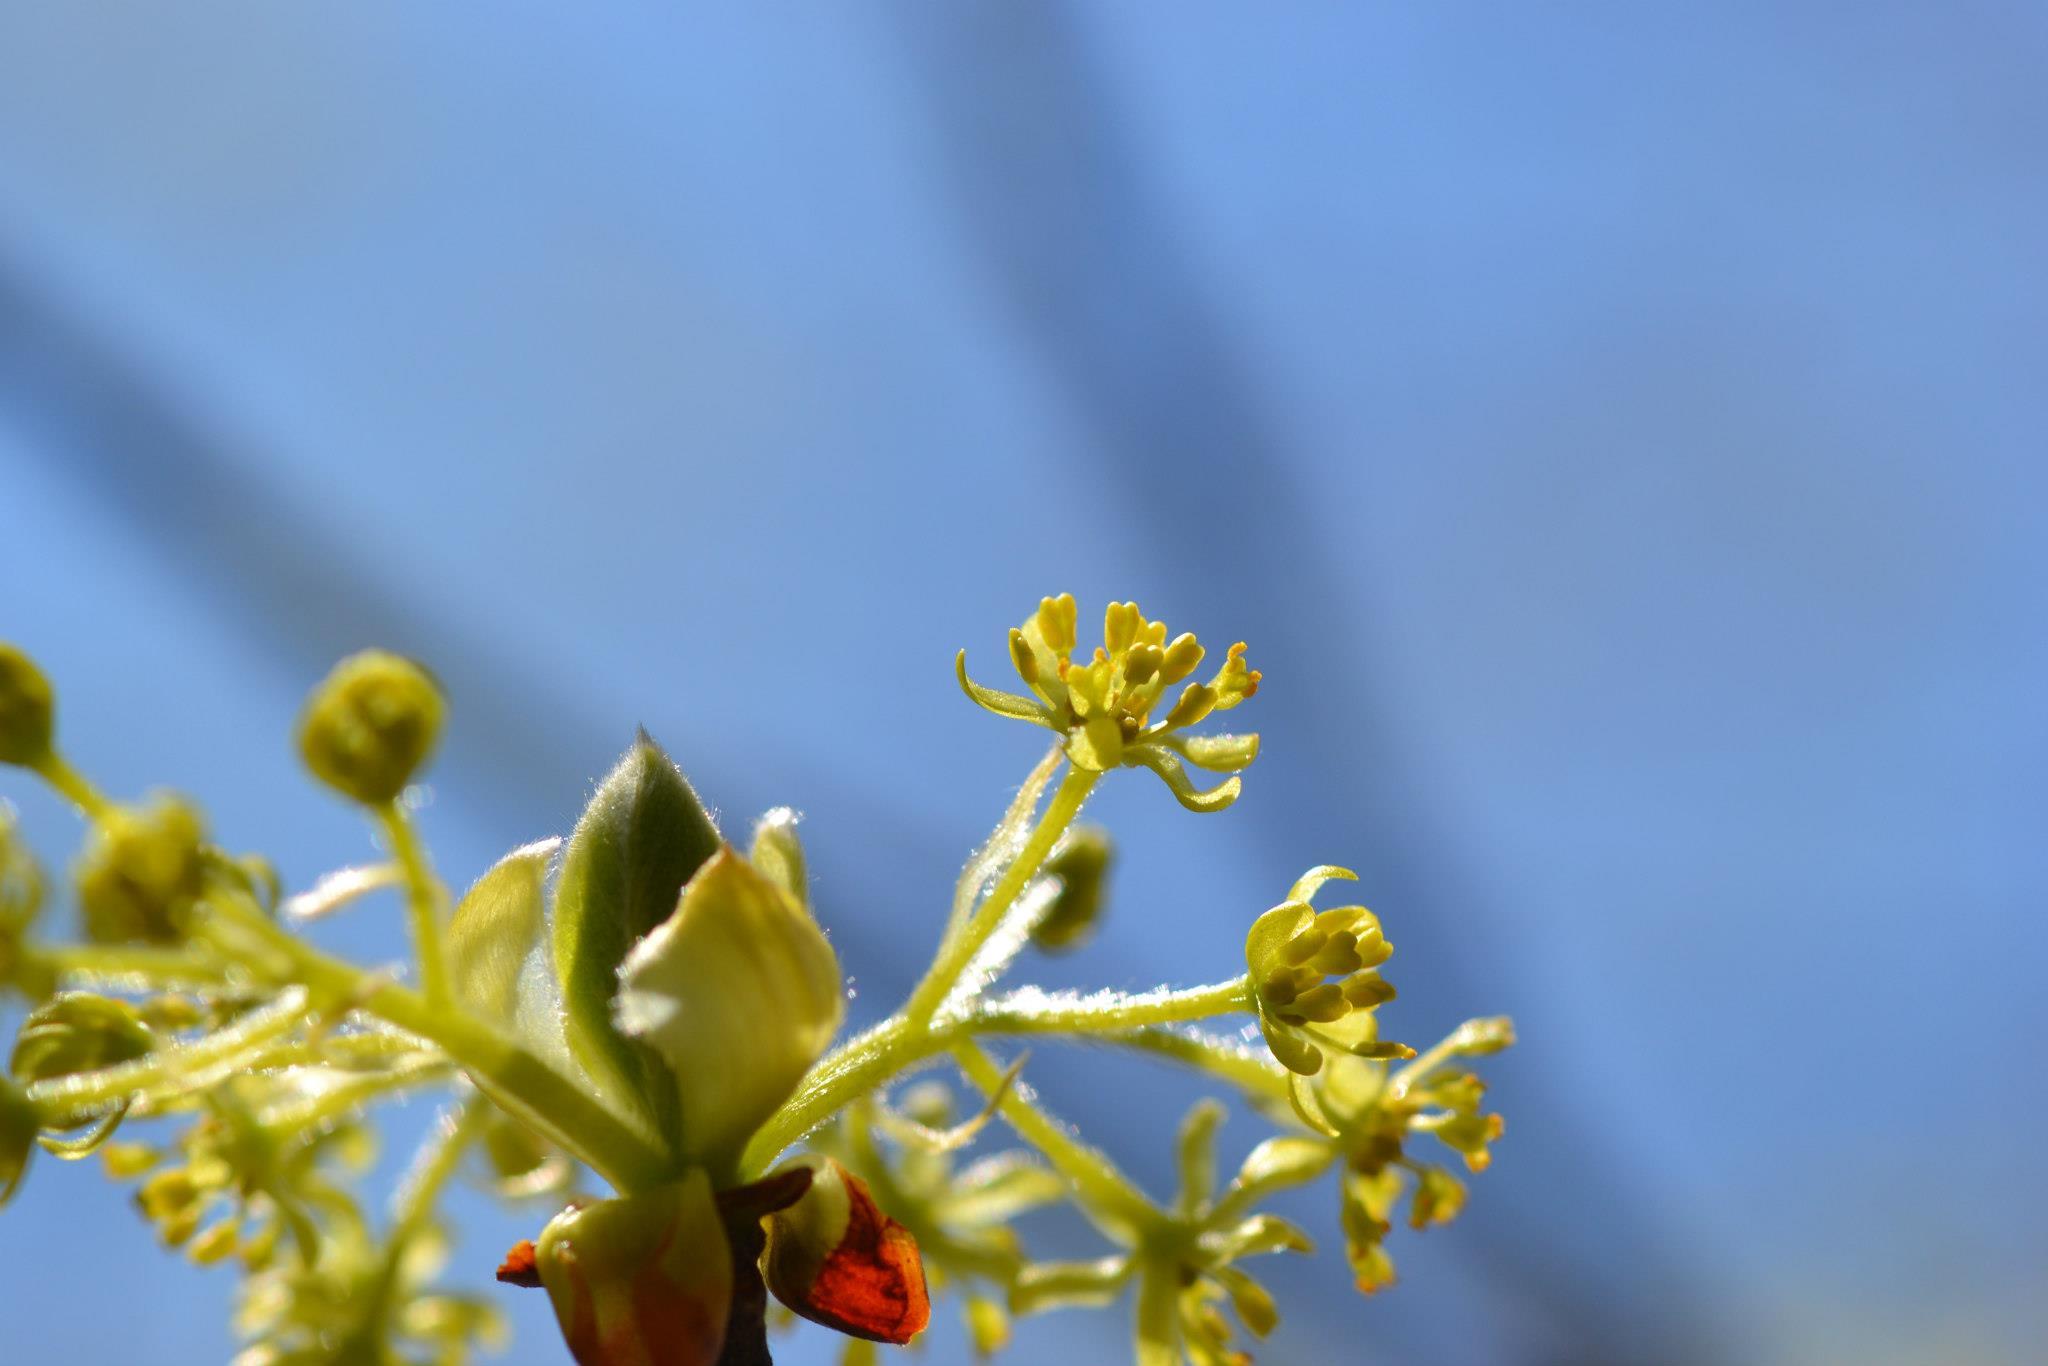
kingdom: Plantae
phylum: Tracheophyta
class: Magnoliopsida
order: Laurales
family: Lauraceae
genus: Sassafras
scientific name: Sassafras albidum
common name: Sassafras
